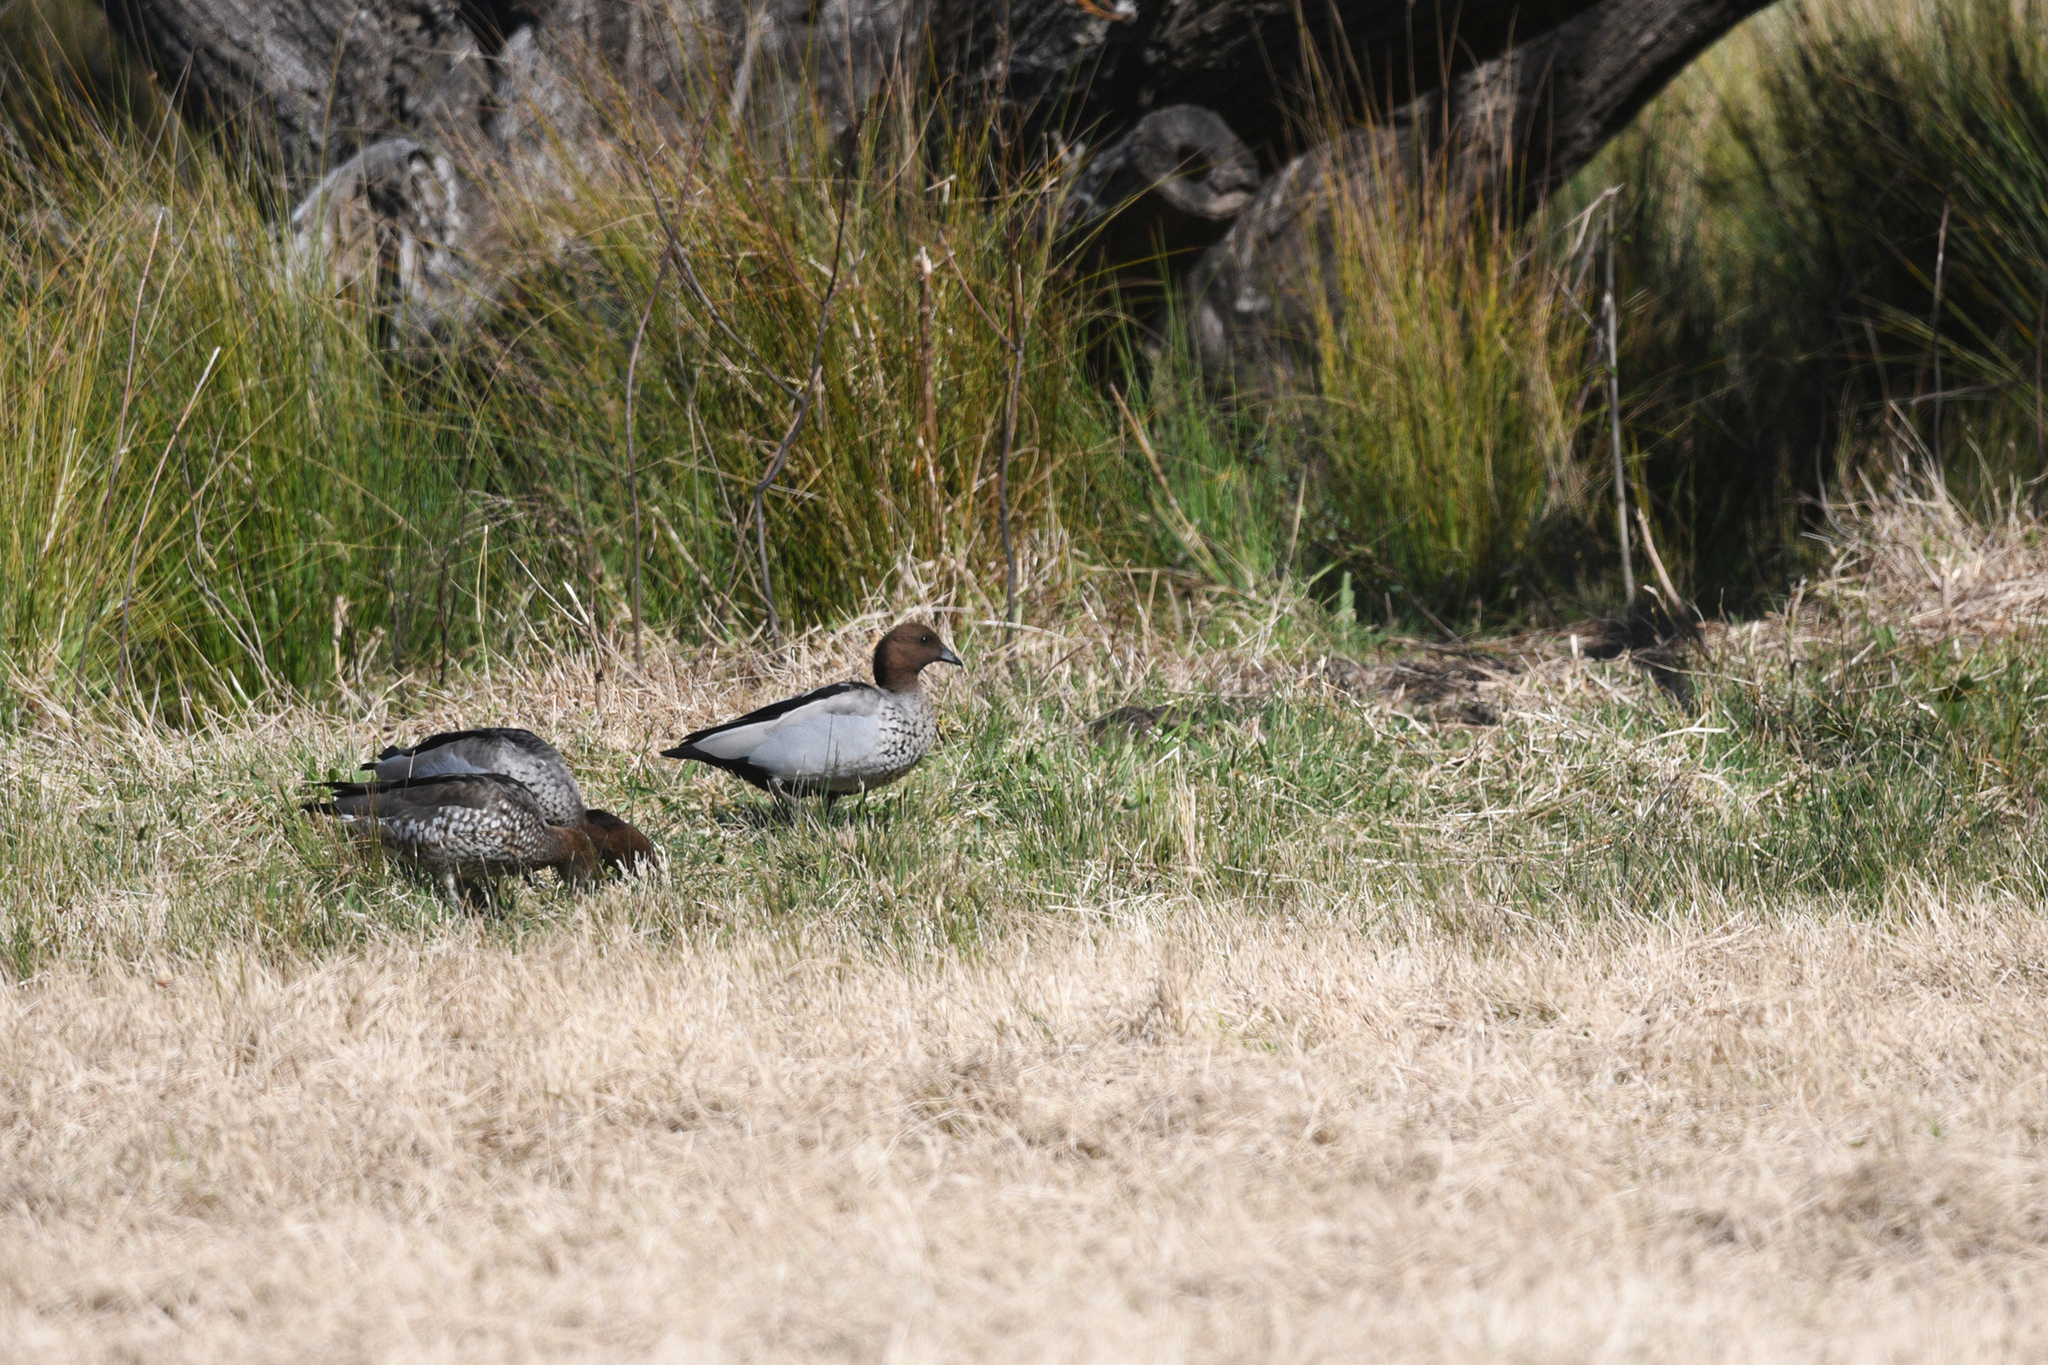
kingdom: Animalia
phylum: Chordata
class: Aves
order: Anseriformes
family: Anatidae
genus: Chenonetta
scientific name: Chenonetta jubata
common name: Maned duck
